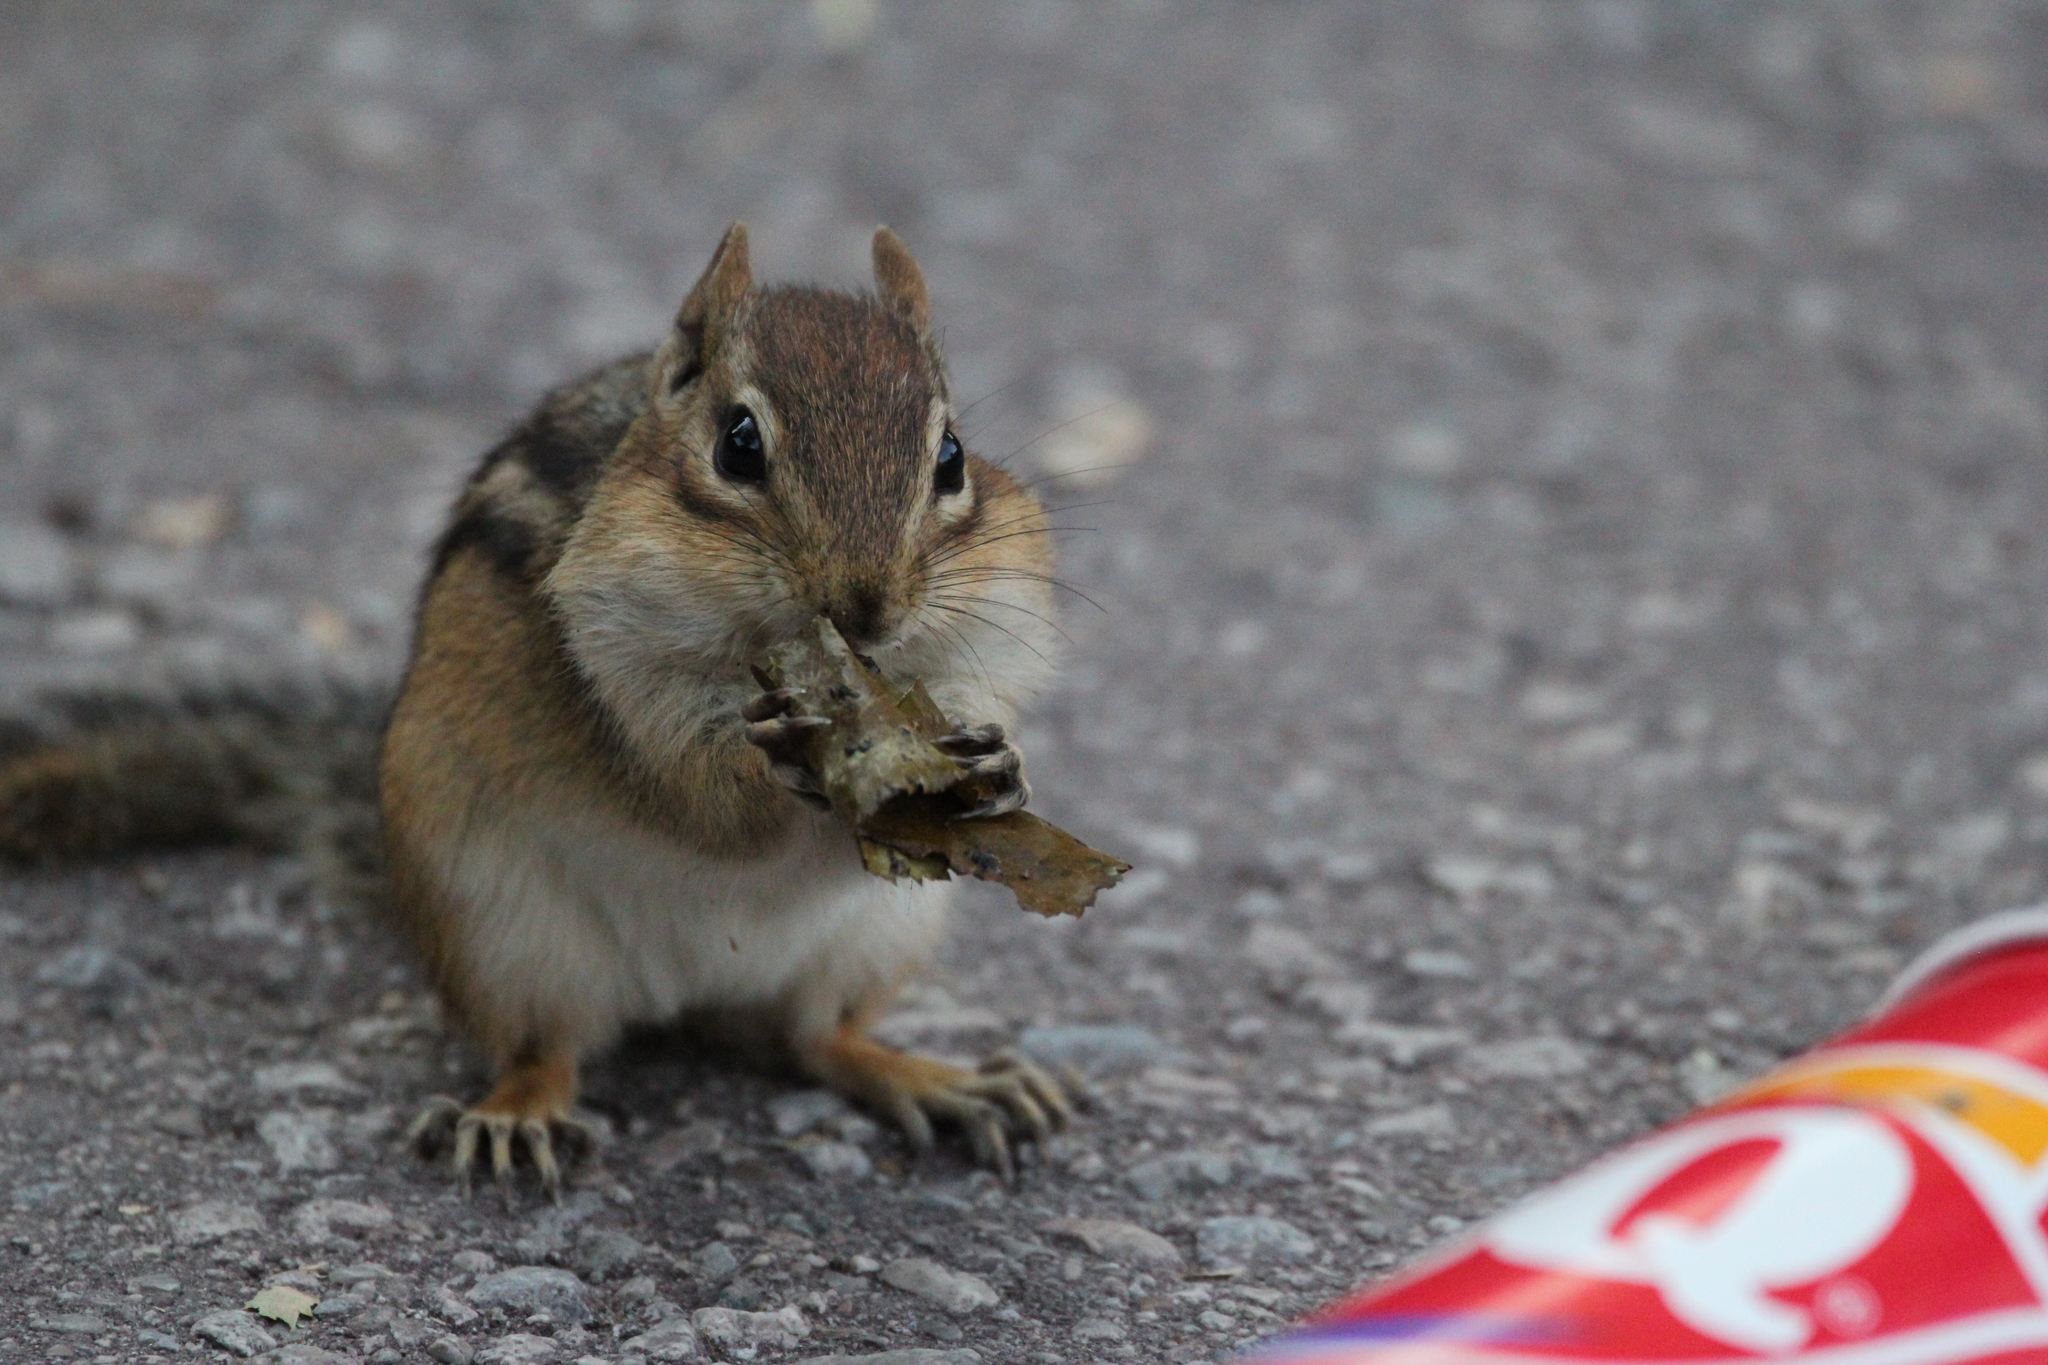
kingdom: Animalia
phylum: Chordata
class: Mammalia
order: Rodentia
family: Sciuridae
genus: Tamias
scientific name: Tamias striatus
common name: Eastern chipmunk
